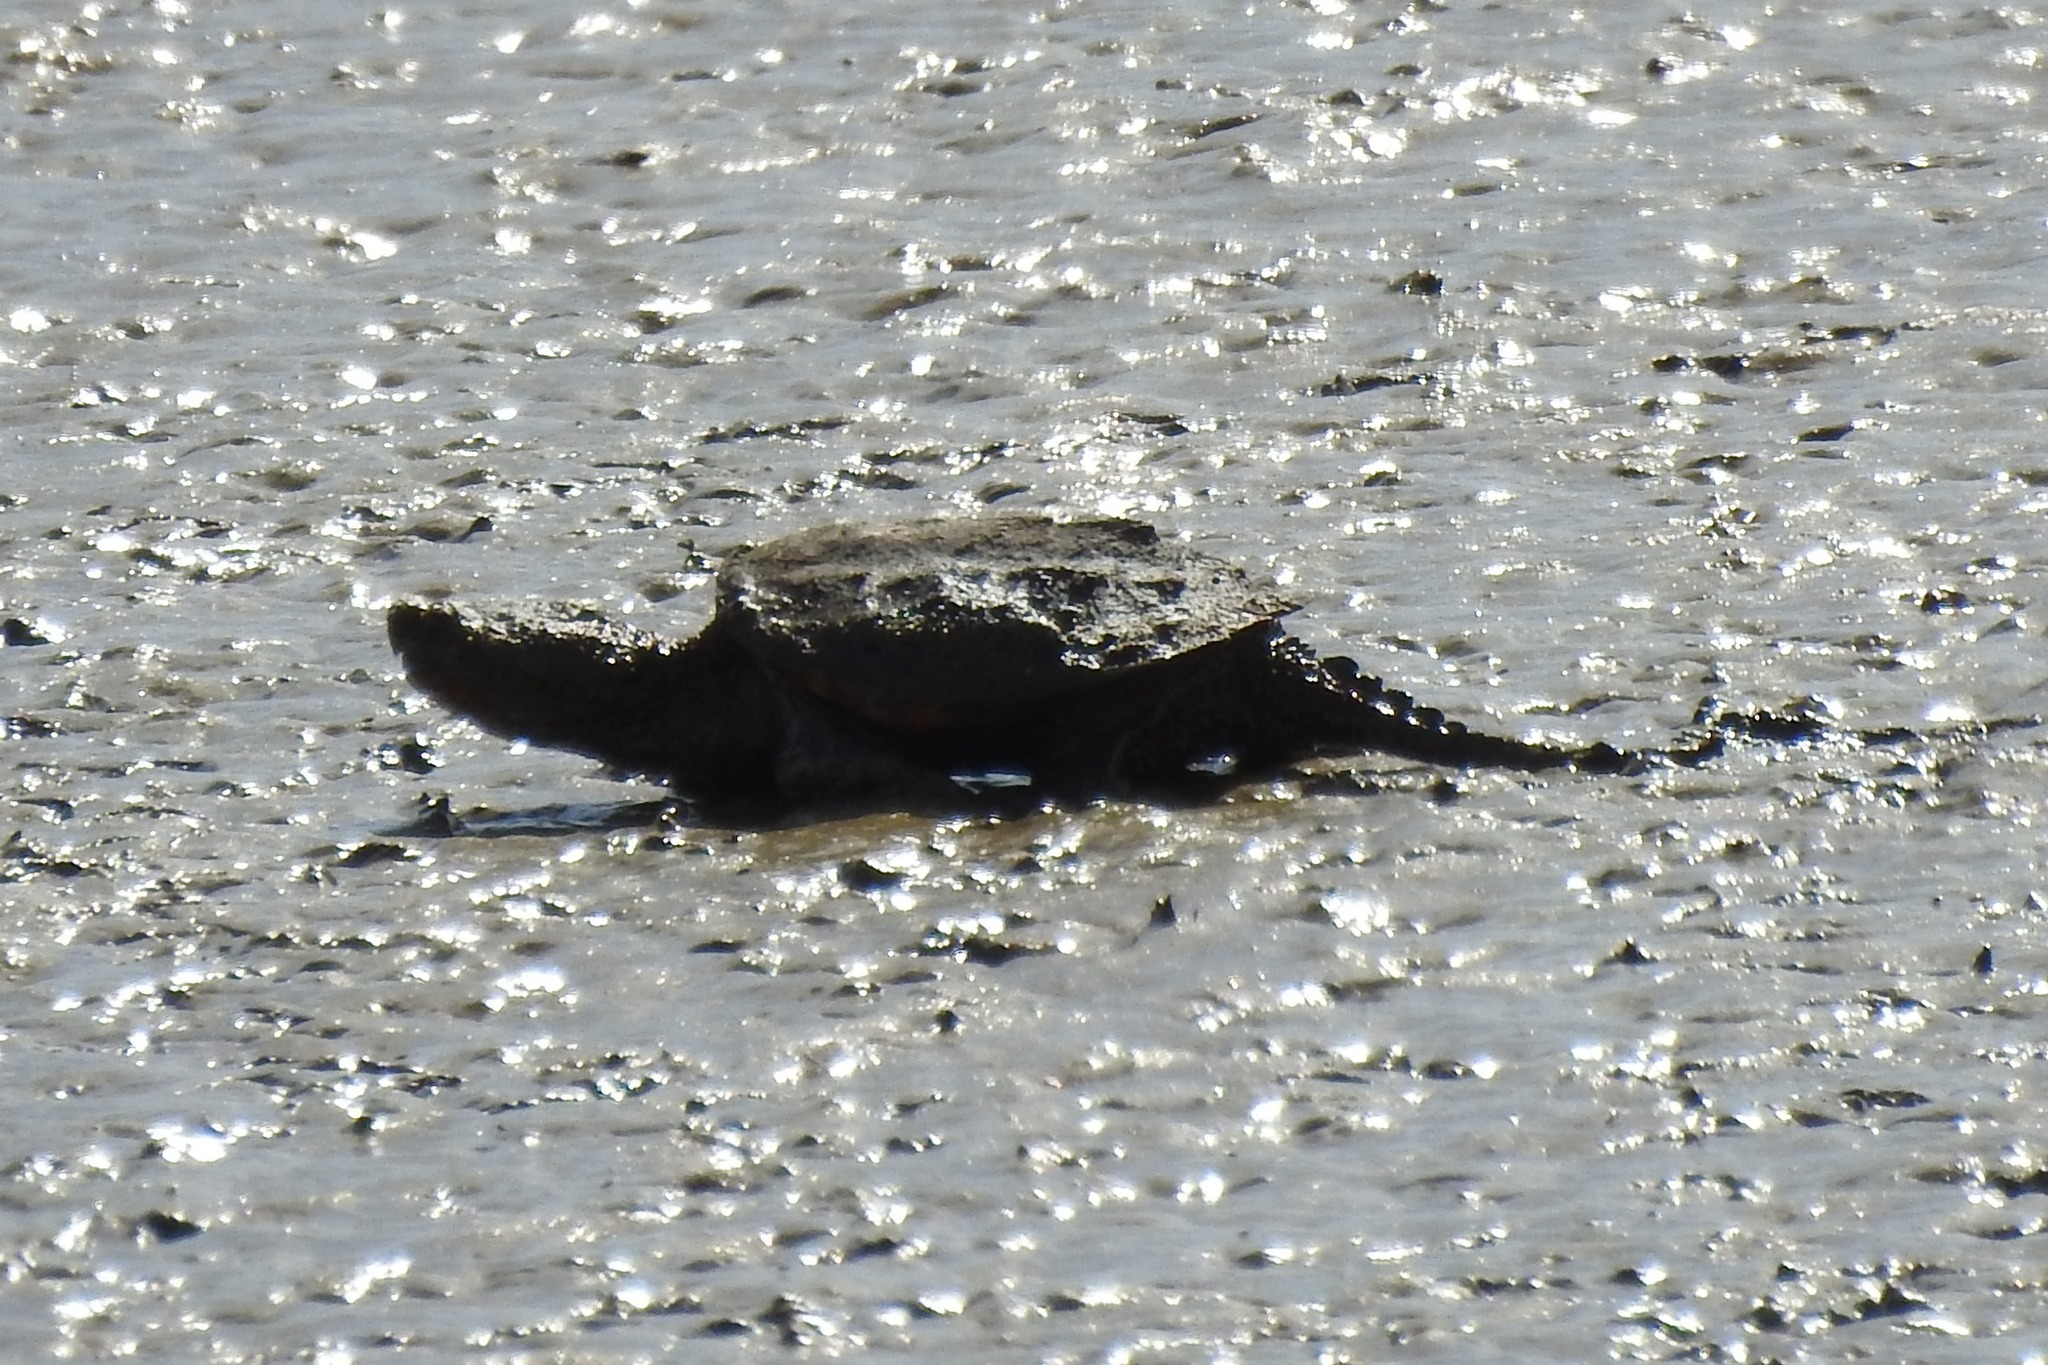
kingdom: Animalia
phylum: Chordata
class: Testudines
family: Chelydridae
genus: Chelydra
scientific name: Chelydra serpentina
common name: Common snapping turtle
